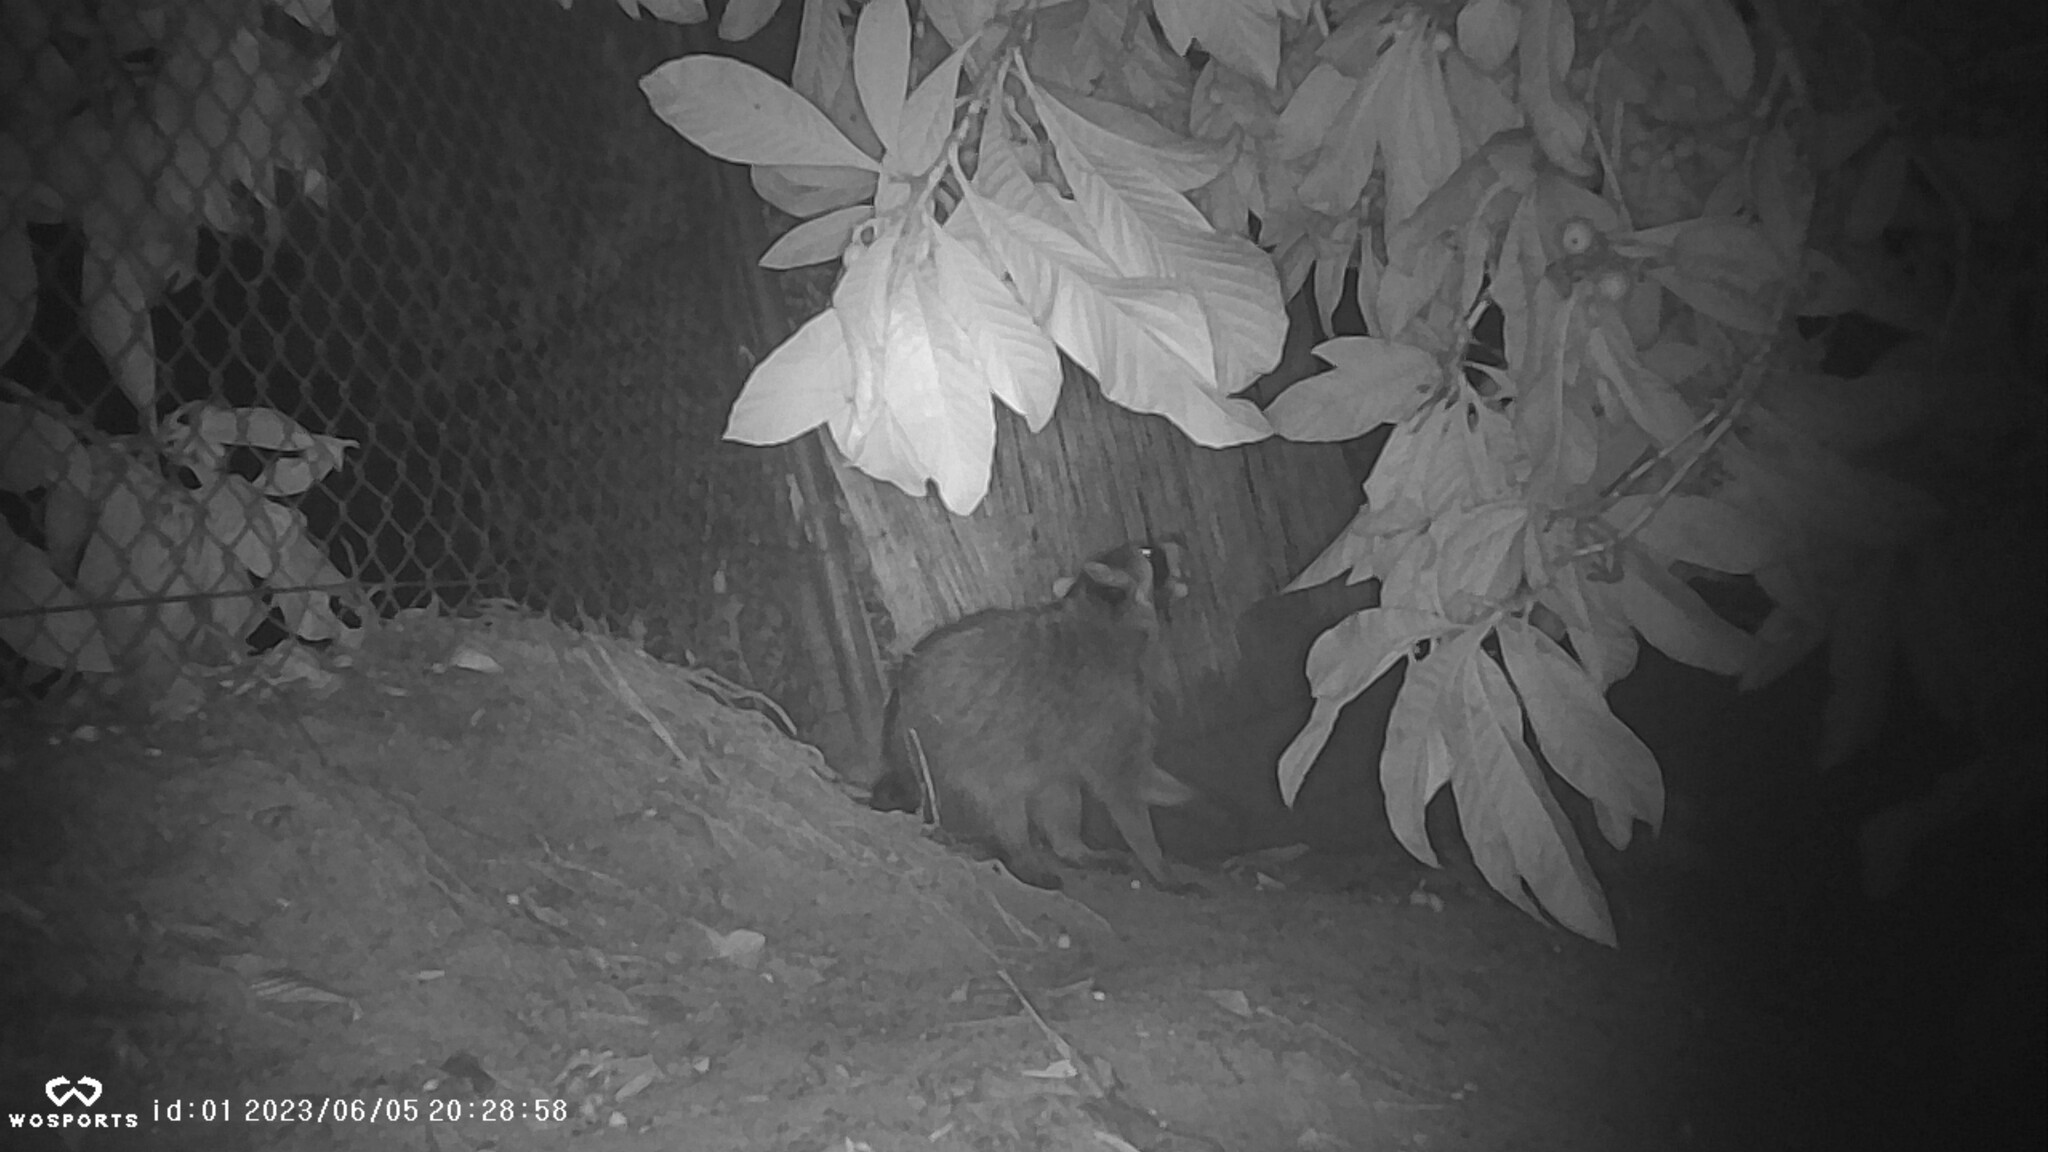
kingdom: Animalia
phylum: Chordata
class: Mammalia
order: Carnivora
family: Procyonidae
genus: Procyon
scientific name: Procyon lotor
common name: Raccoon
